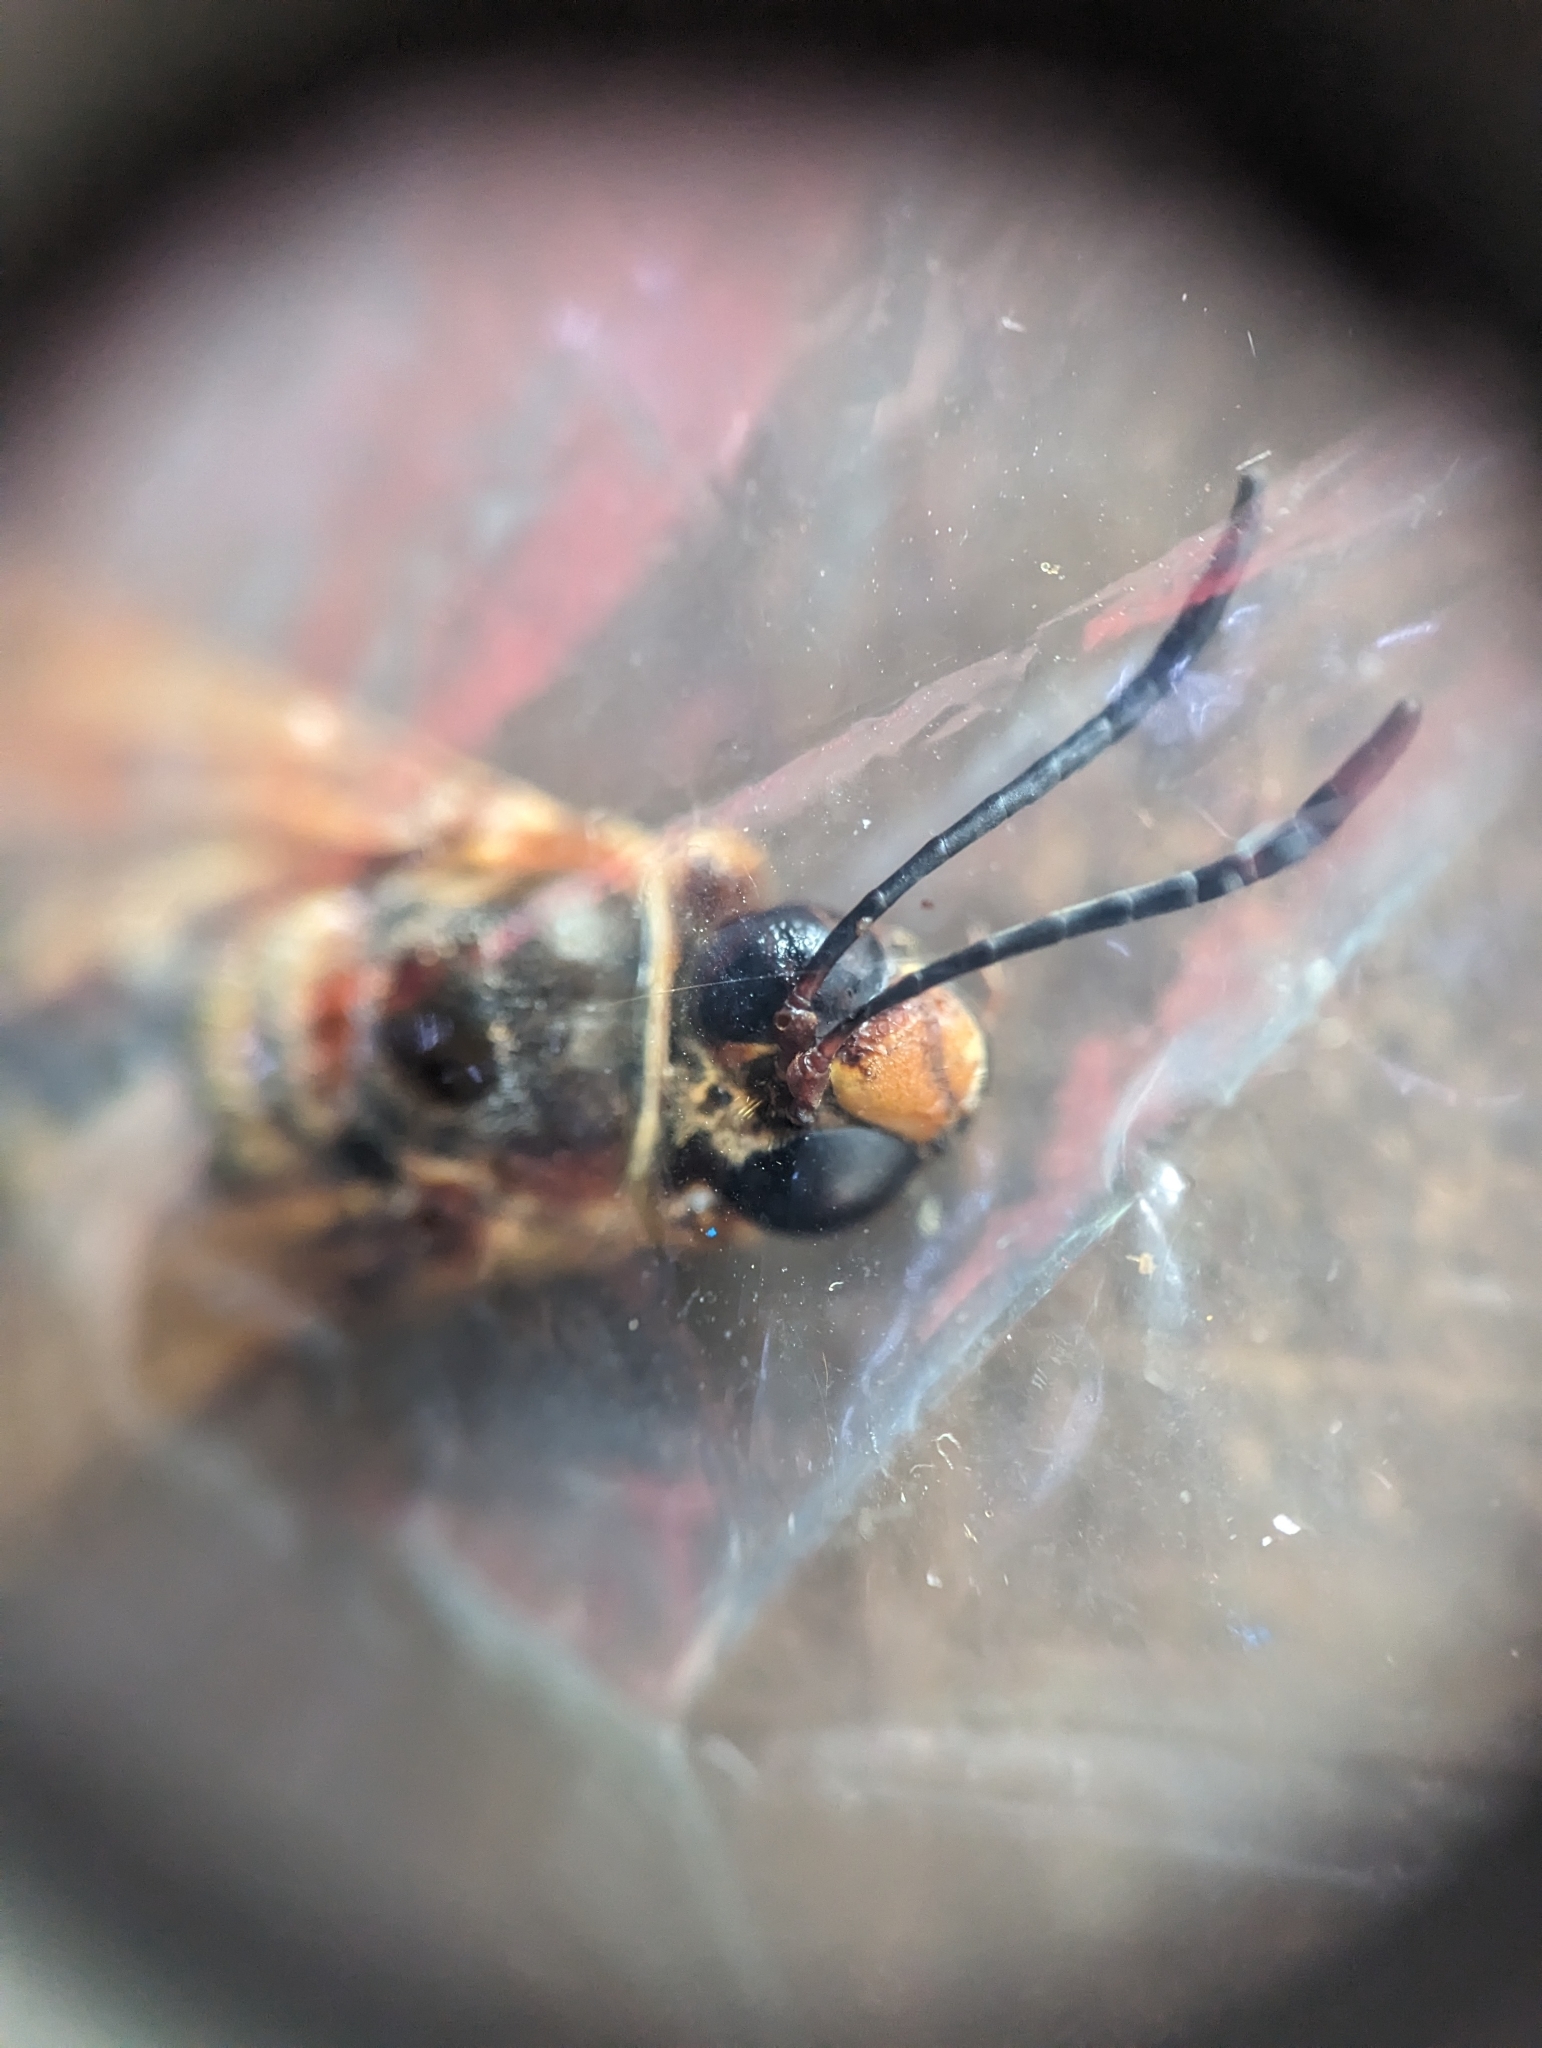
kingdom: Animalia
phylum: Arthropoda
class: Insecta
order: Hymenoptera
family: Crabronidae
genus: Sphecius
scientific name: Sphecius speciosus
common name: Cicada killer
